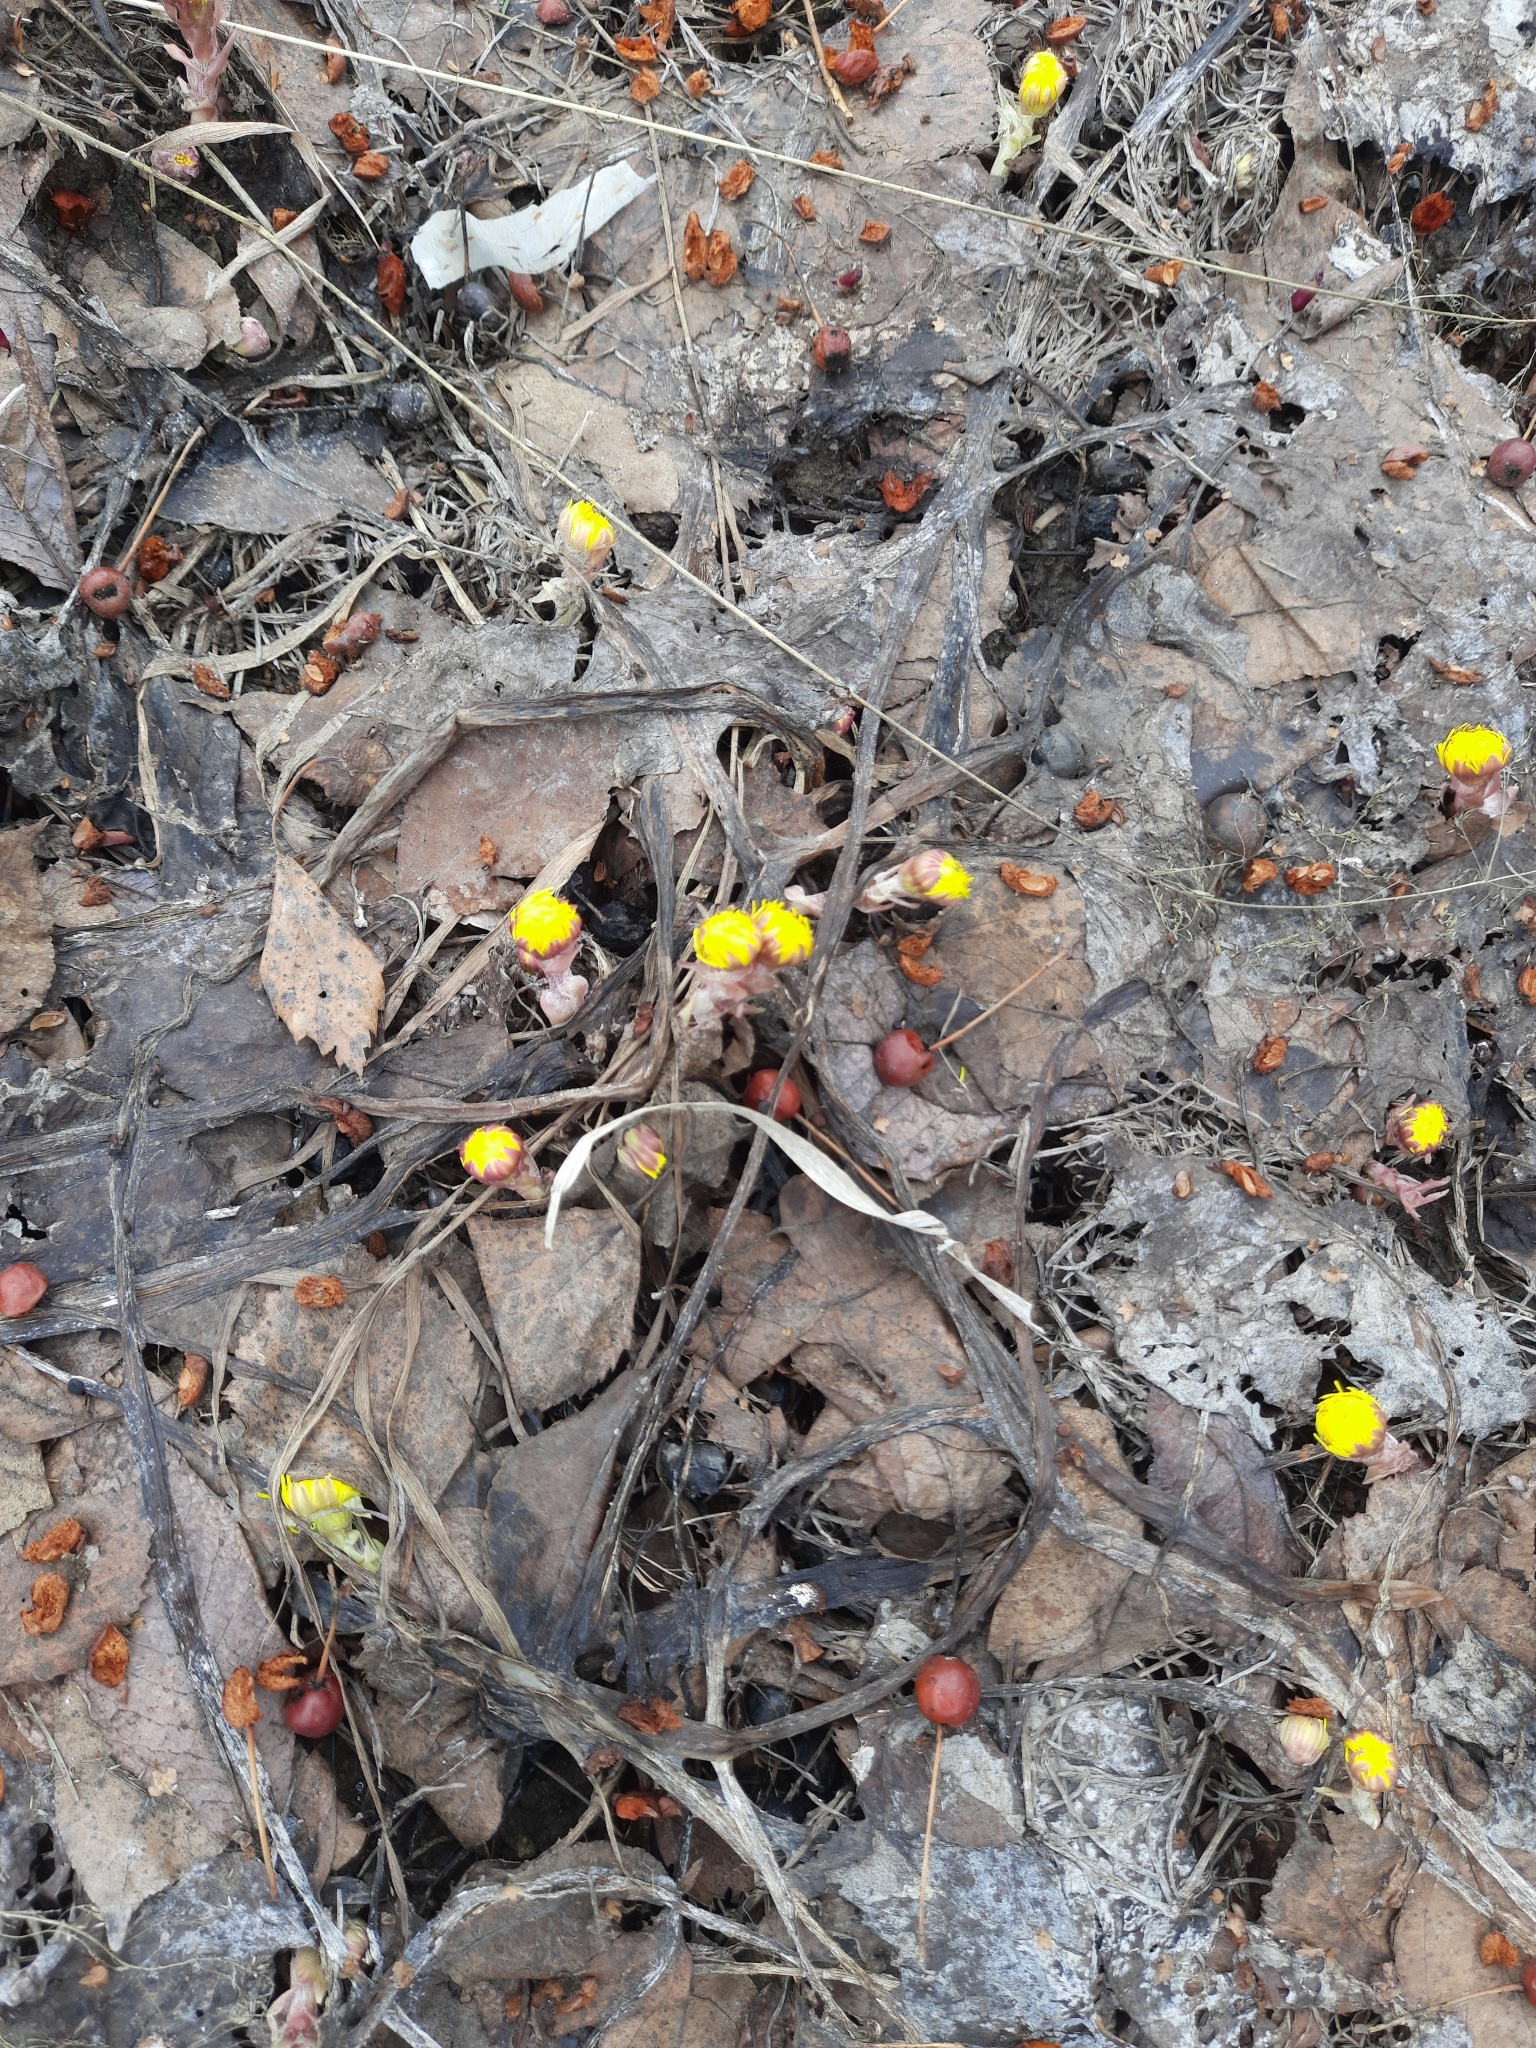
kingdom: Plantae
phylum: Tracheophyta
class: Magnoliopsida
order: Asterales
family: Asteraceae
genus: Tussilago
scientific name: Tussilago farfara
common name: Coltsfoot
